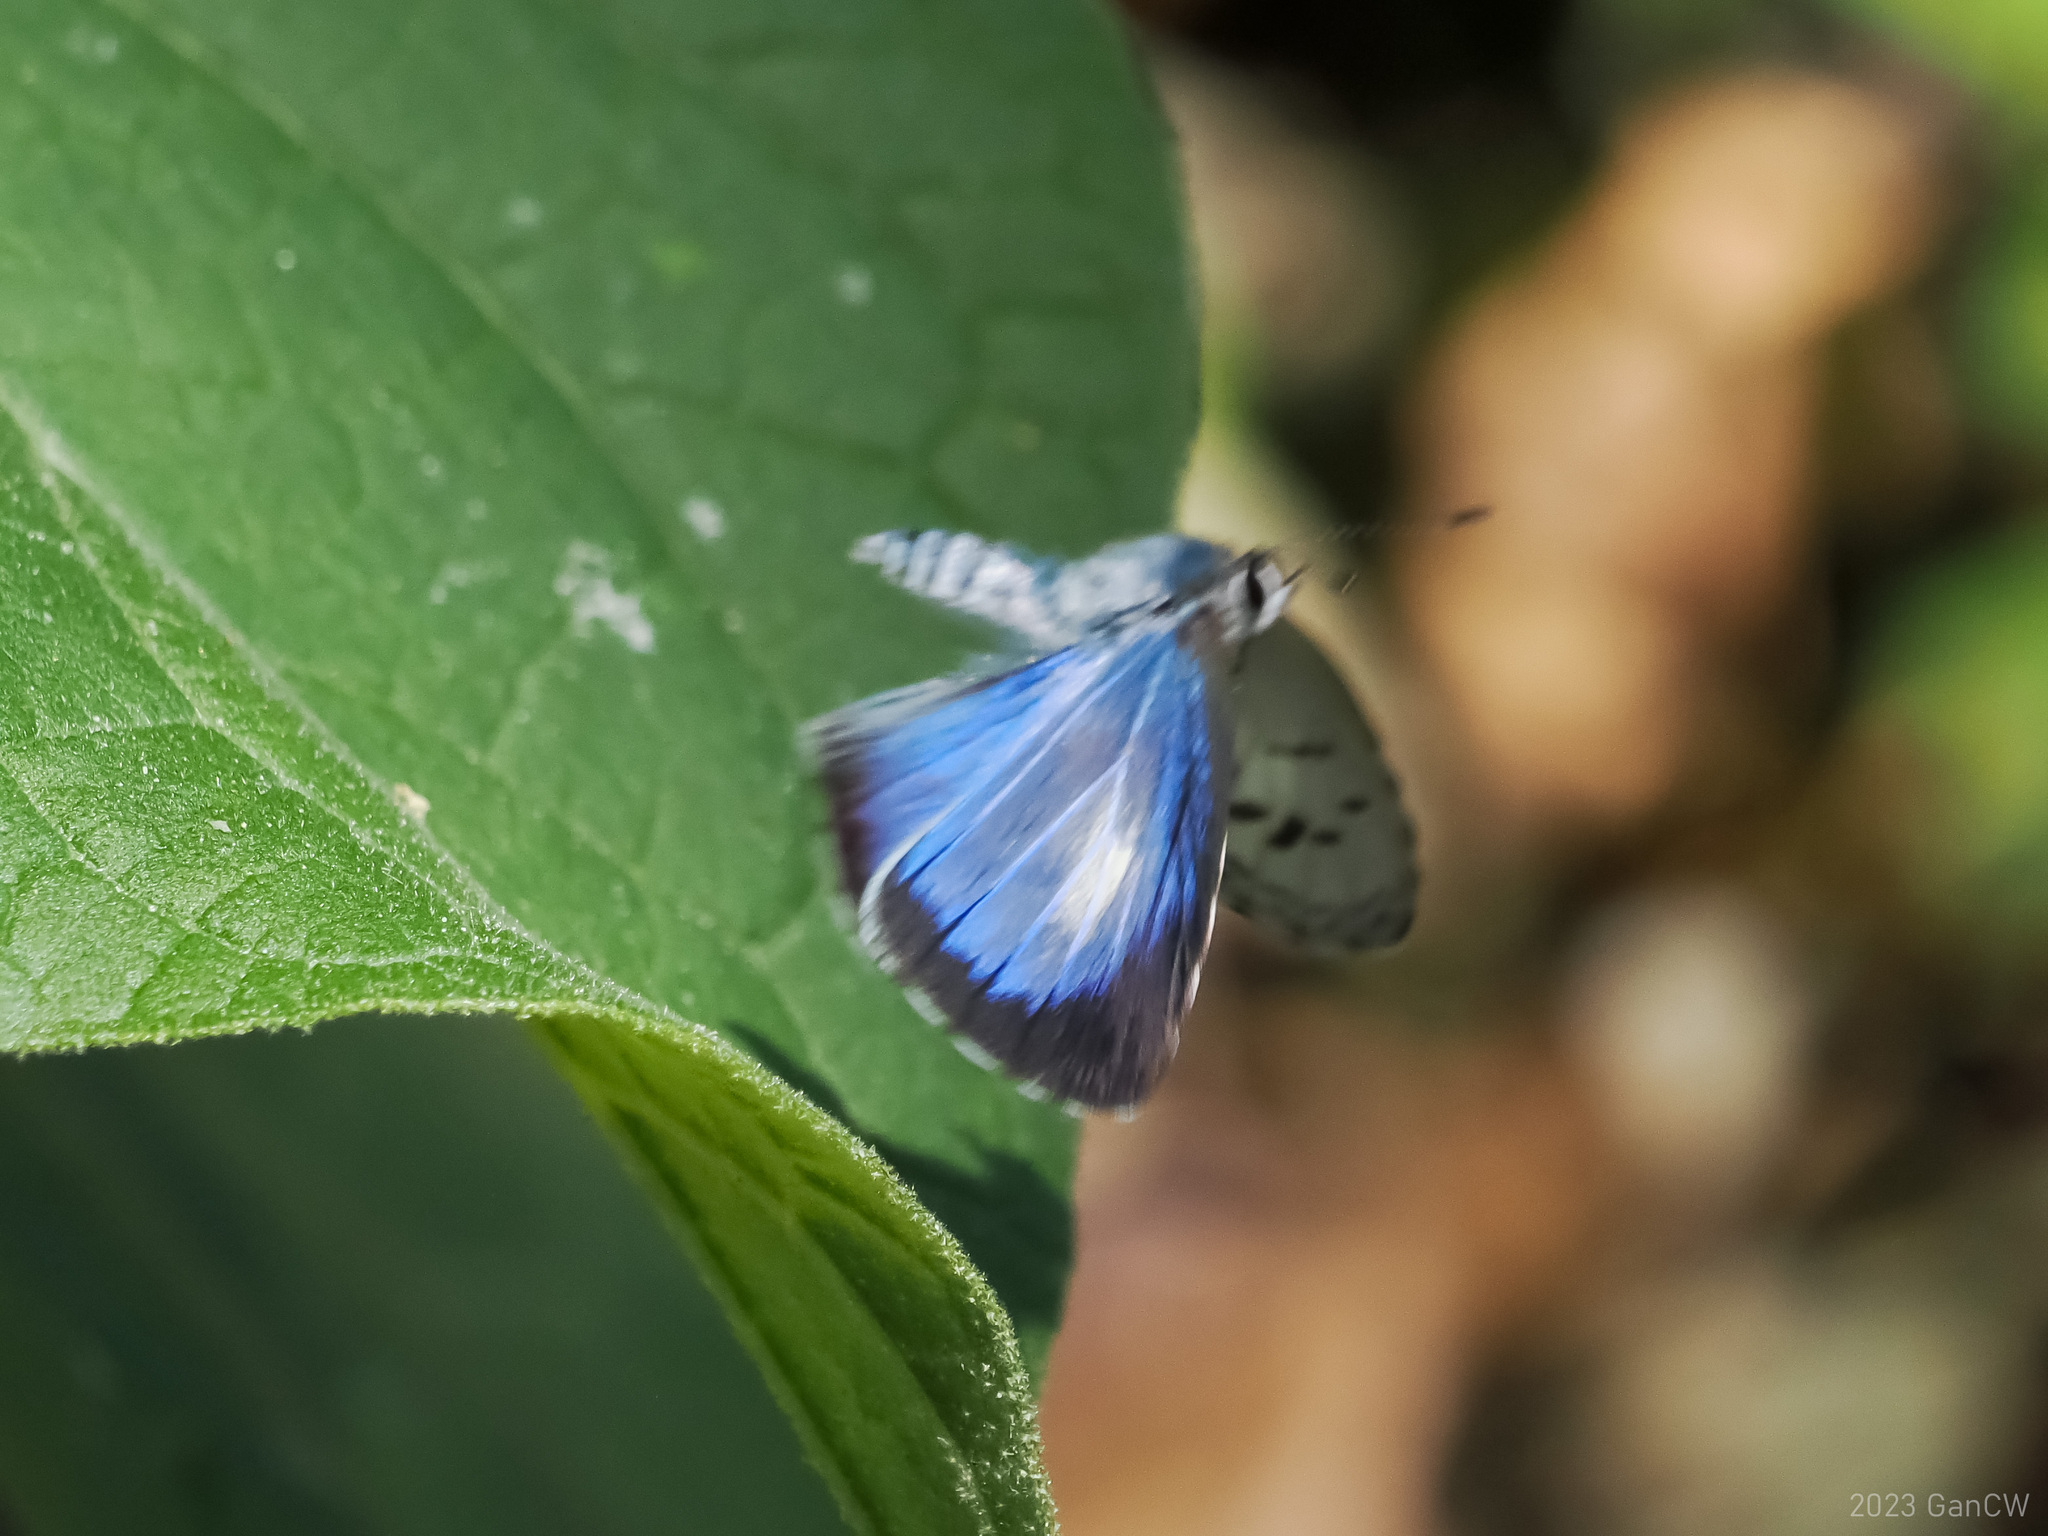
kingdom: Animalia
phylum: Arthropoda
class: Insecta
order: Lepidoptera
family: Lycaenidae
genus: Acytolepis
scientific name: Acytolepis puspa
